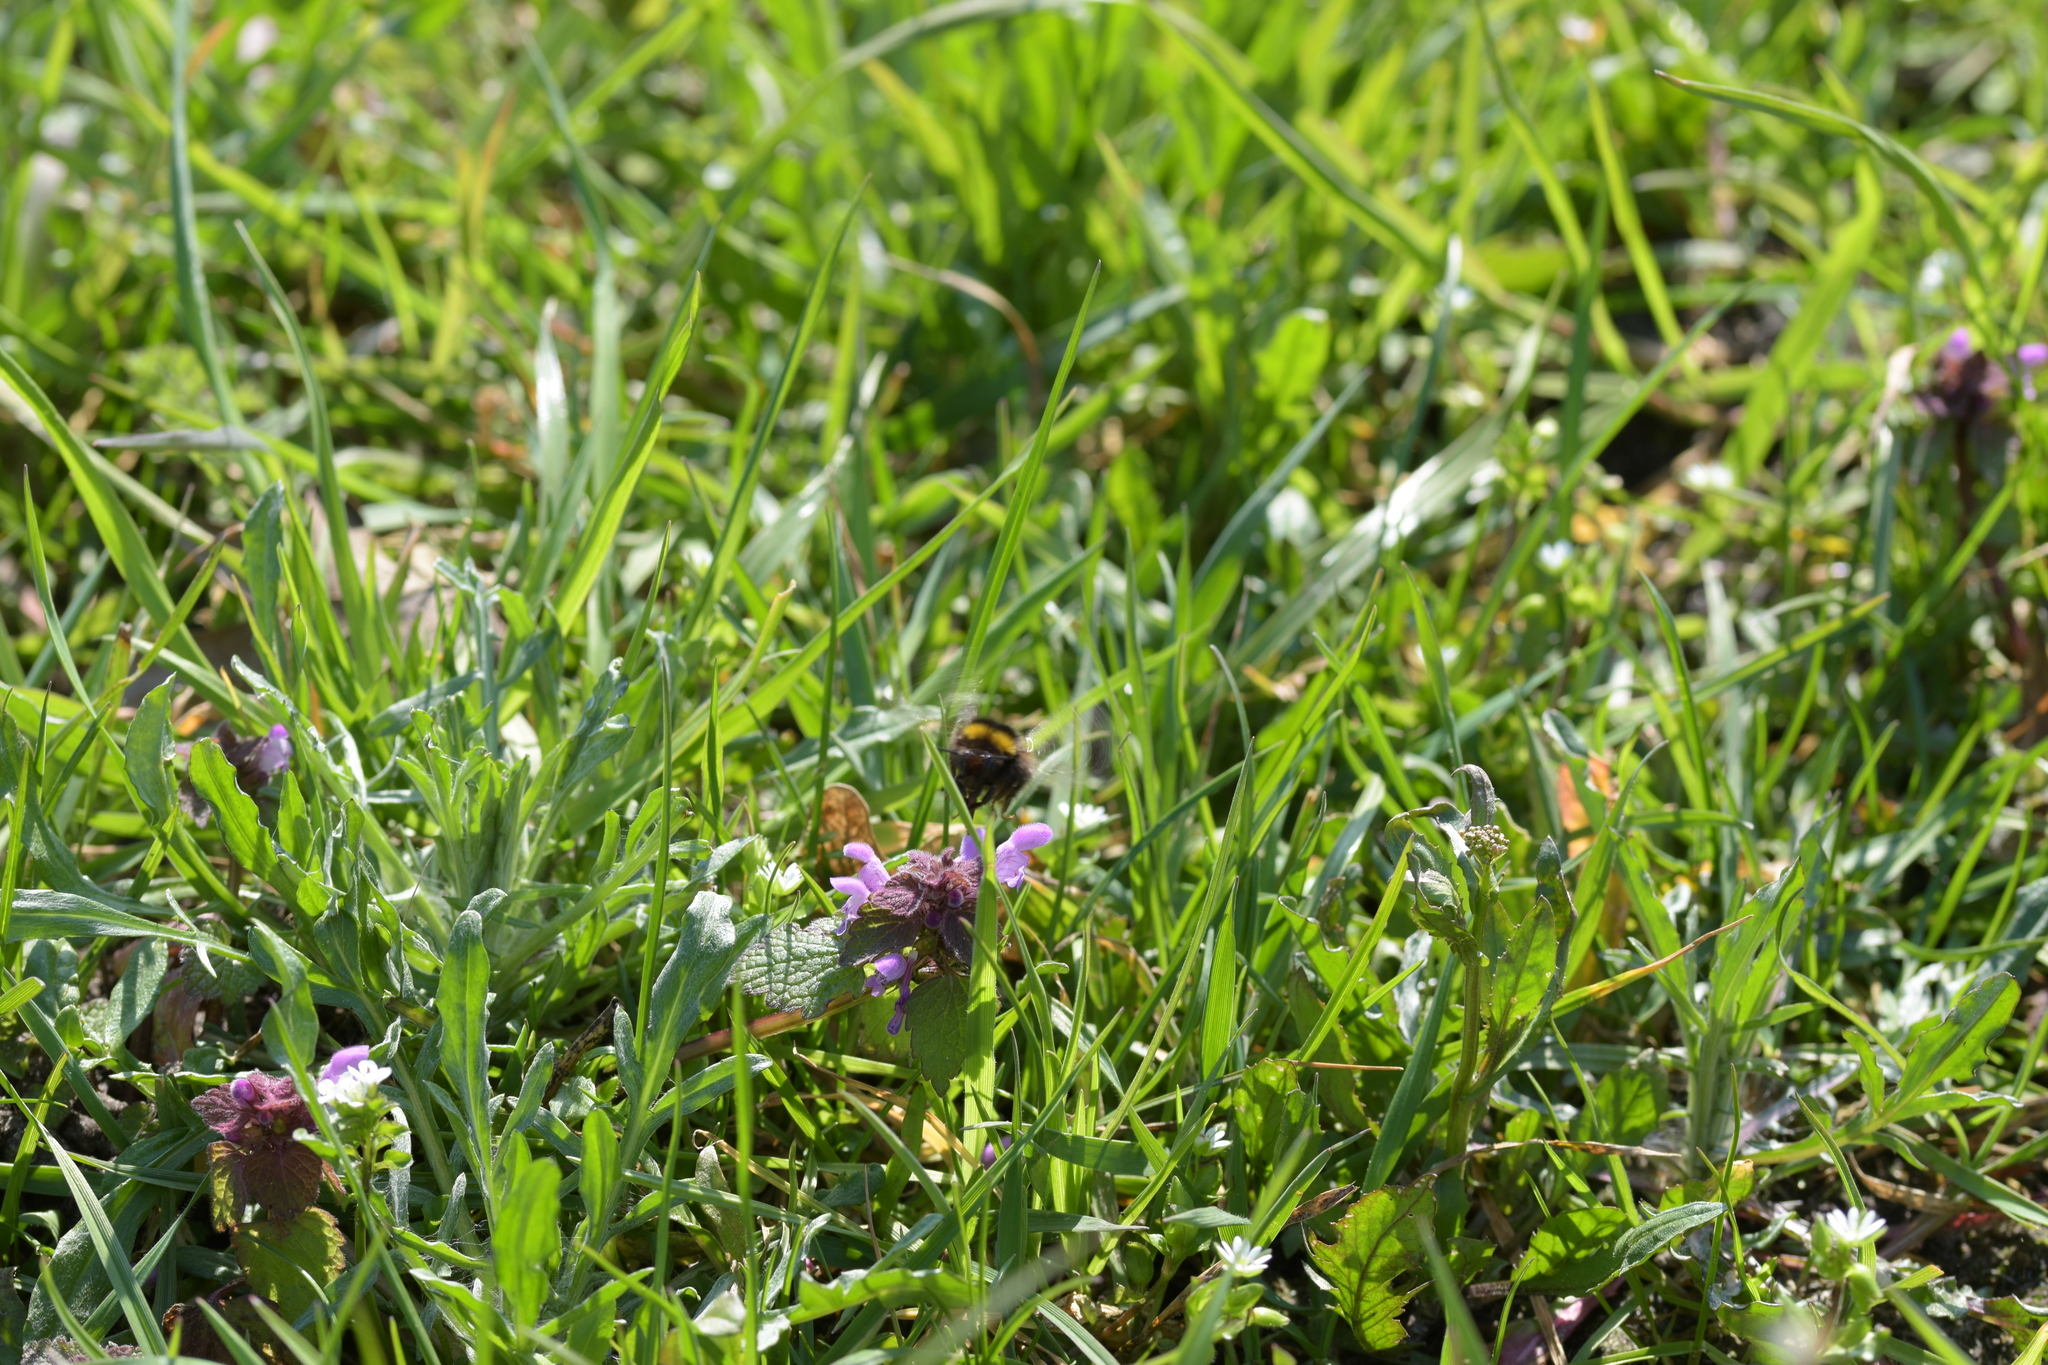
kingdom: Animalia
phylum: Arthropoda
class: Insecta
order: Hymenoptera
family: Apidae
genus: Bombus
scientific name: Bombus pratorum
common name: Early humble-bee
